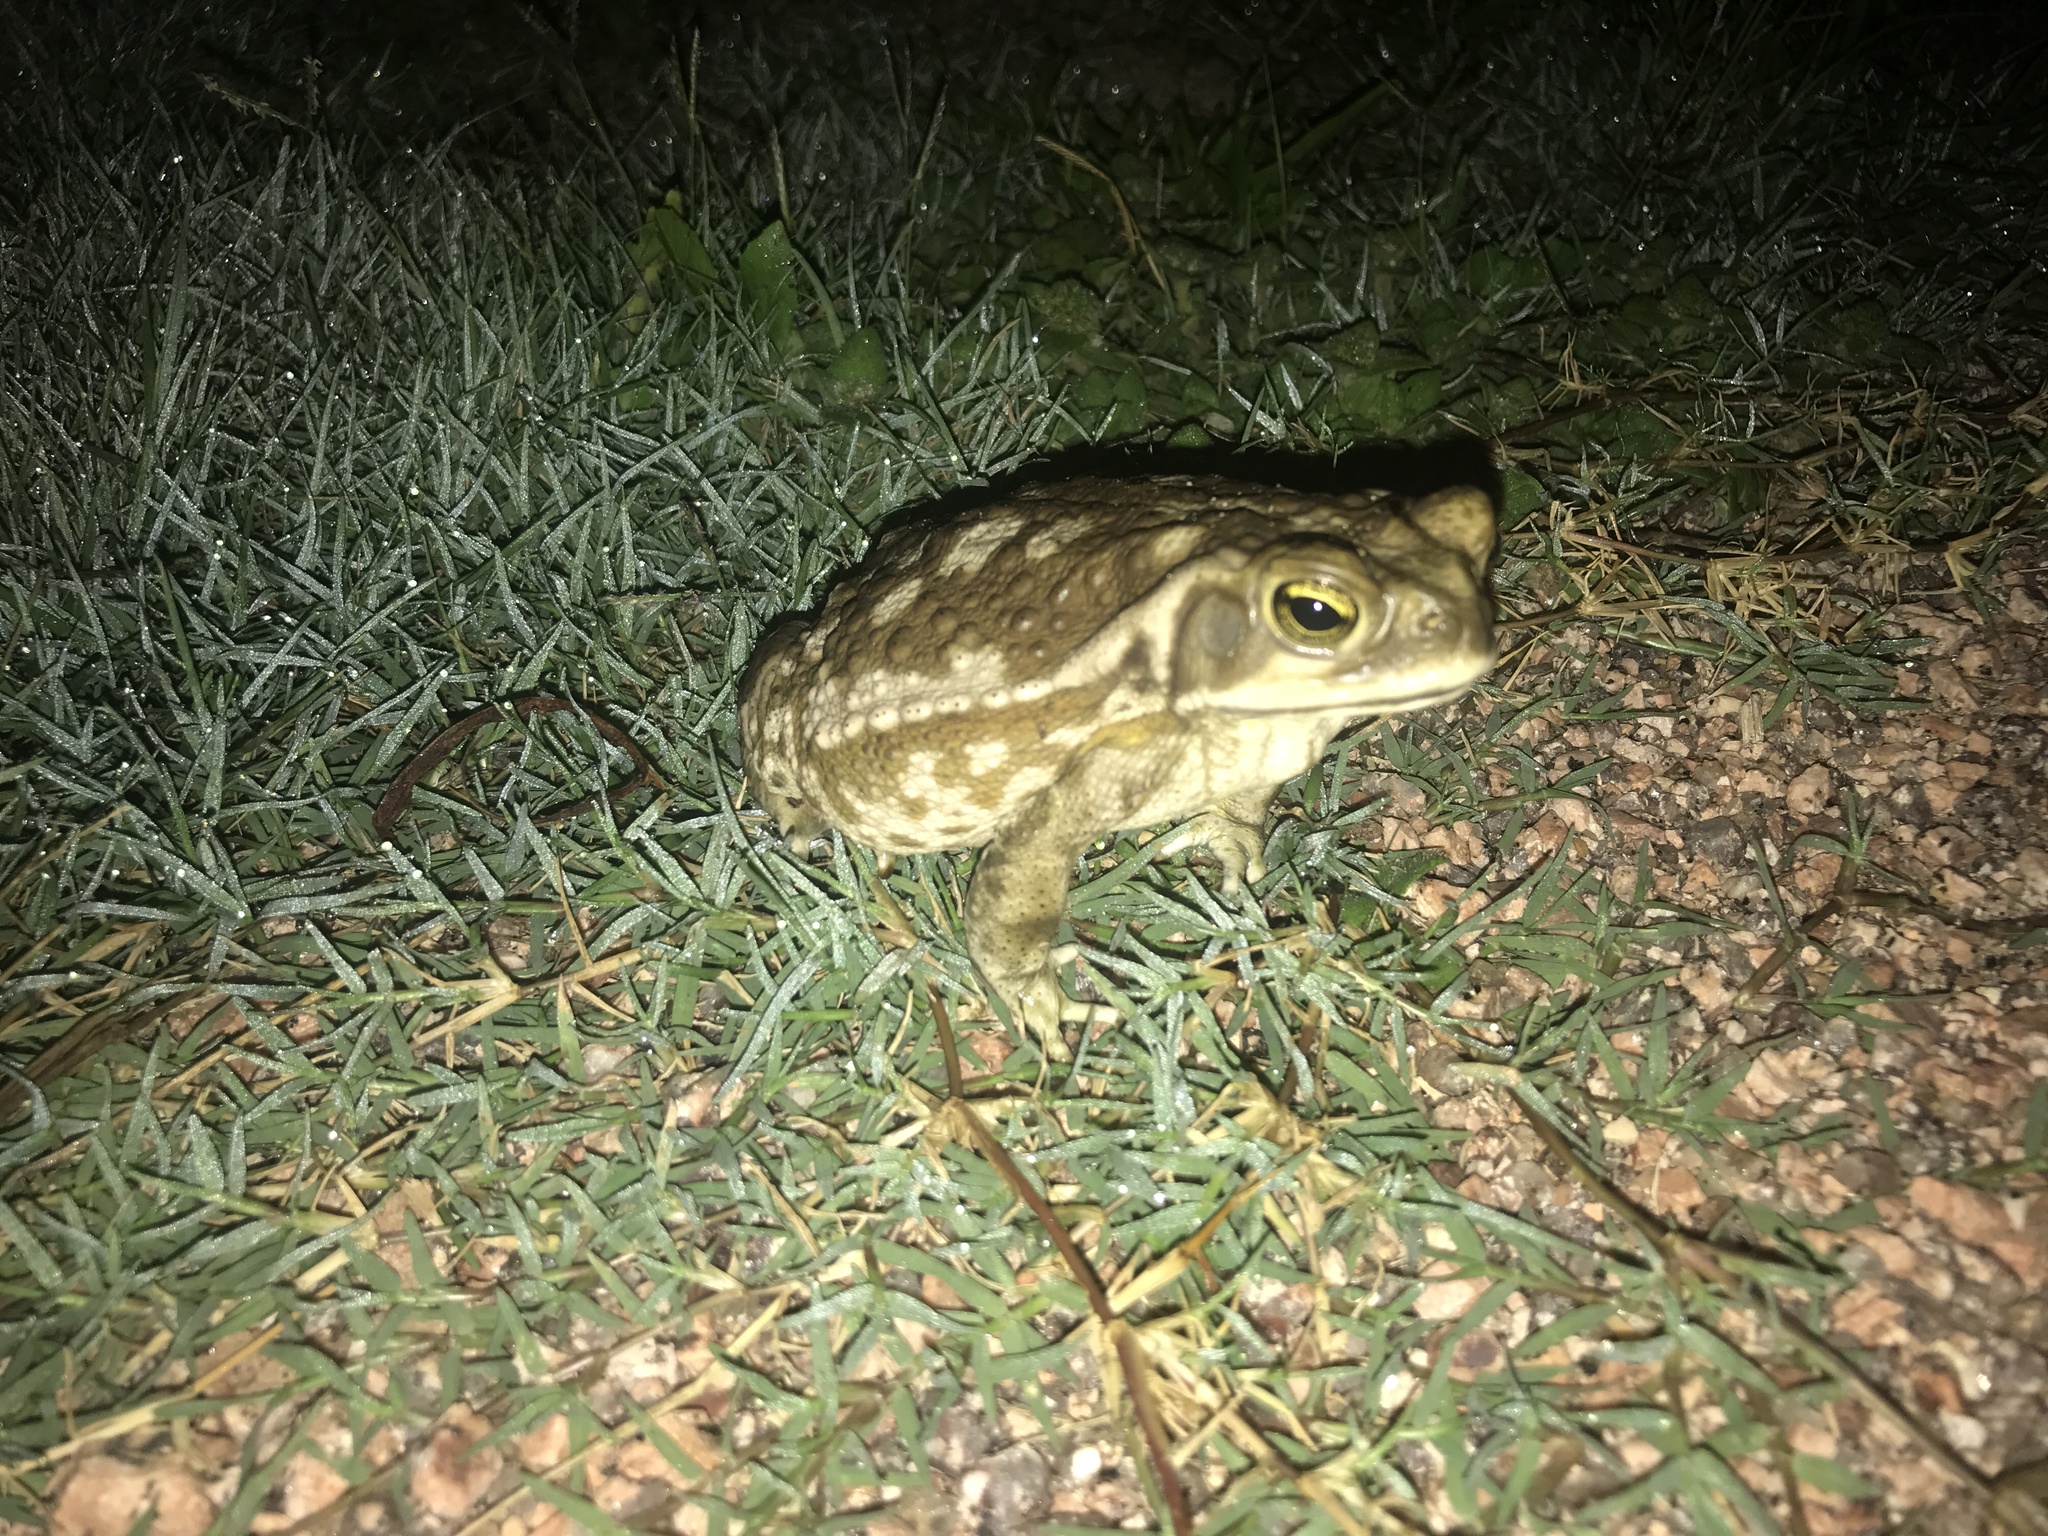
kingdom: Animalia
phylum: Chordata
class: Amphibia
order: Anura
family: Bufonidae
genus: Rhinella
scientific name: Rhinella arenarum
